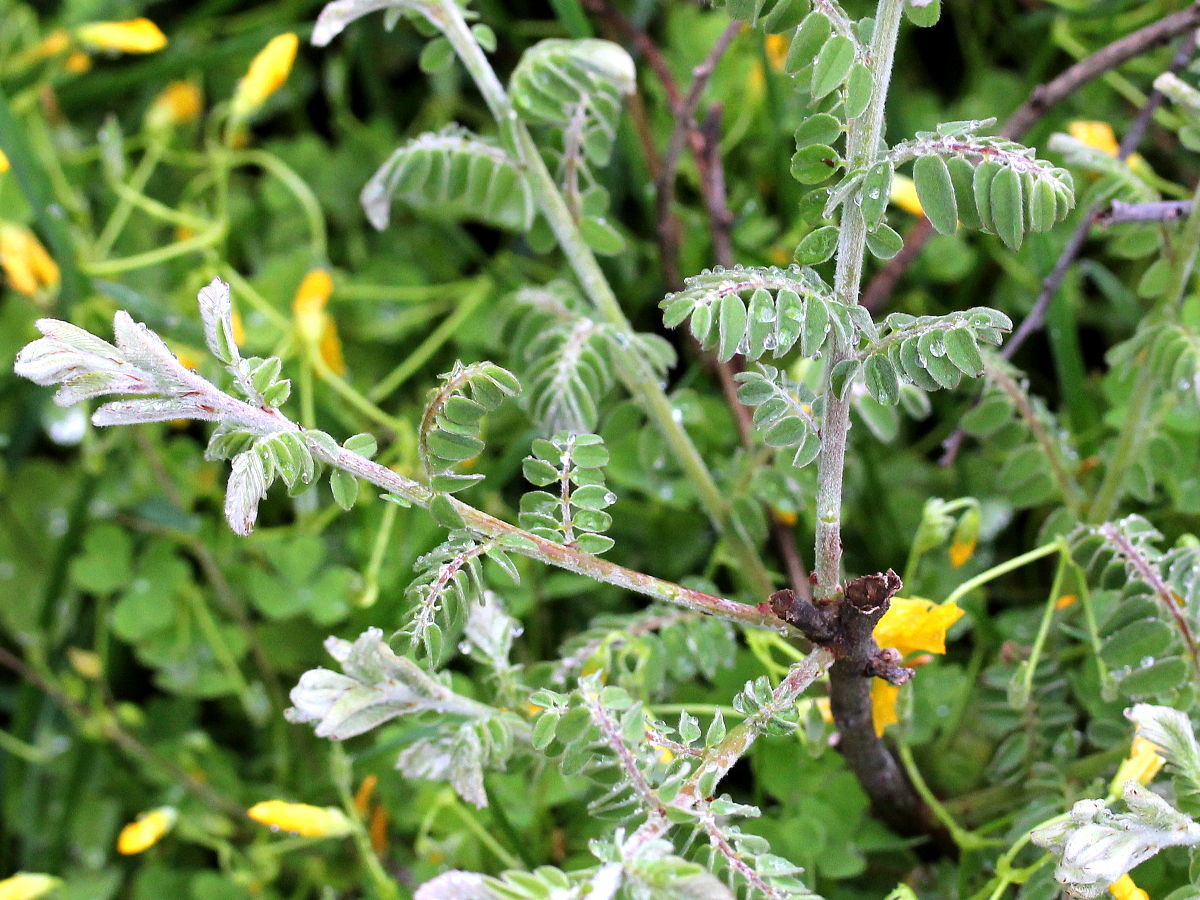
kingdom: Plantae
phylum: Tracheophyta
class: Magnoliopsida
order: Fabales
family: Fabaceae
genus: Amorpha
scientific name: Amorpha canescens
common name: Leadplant
